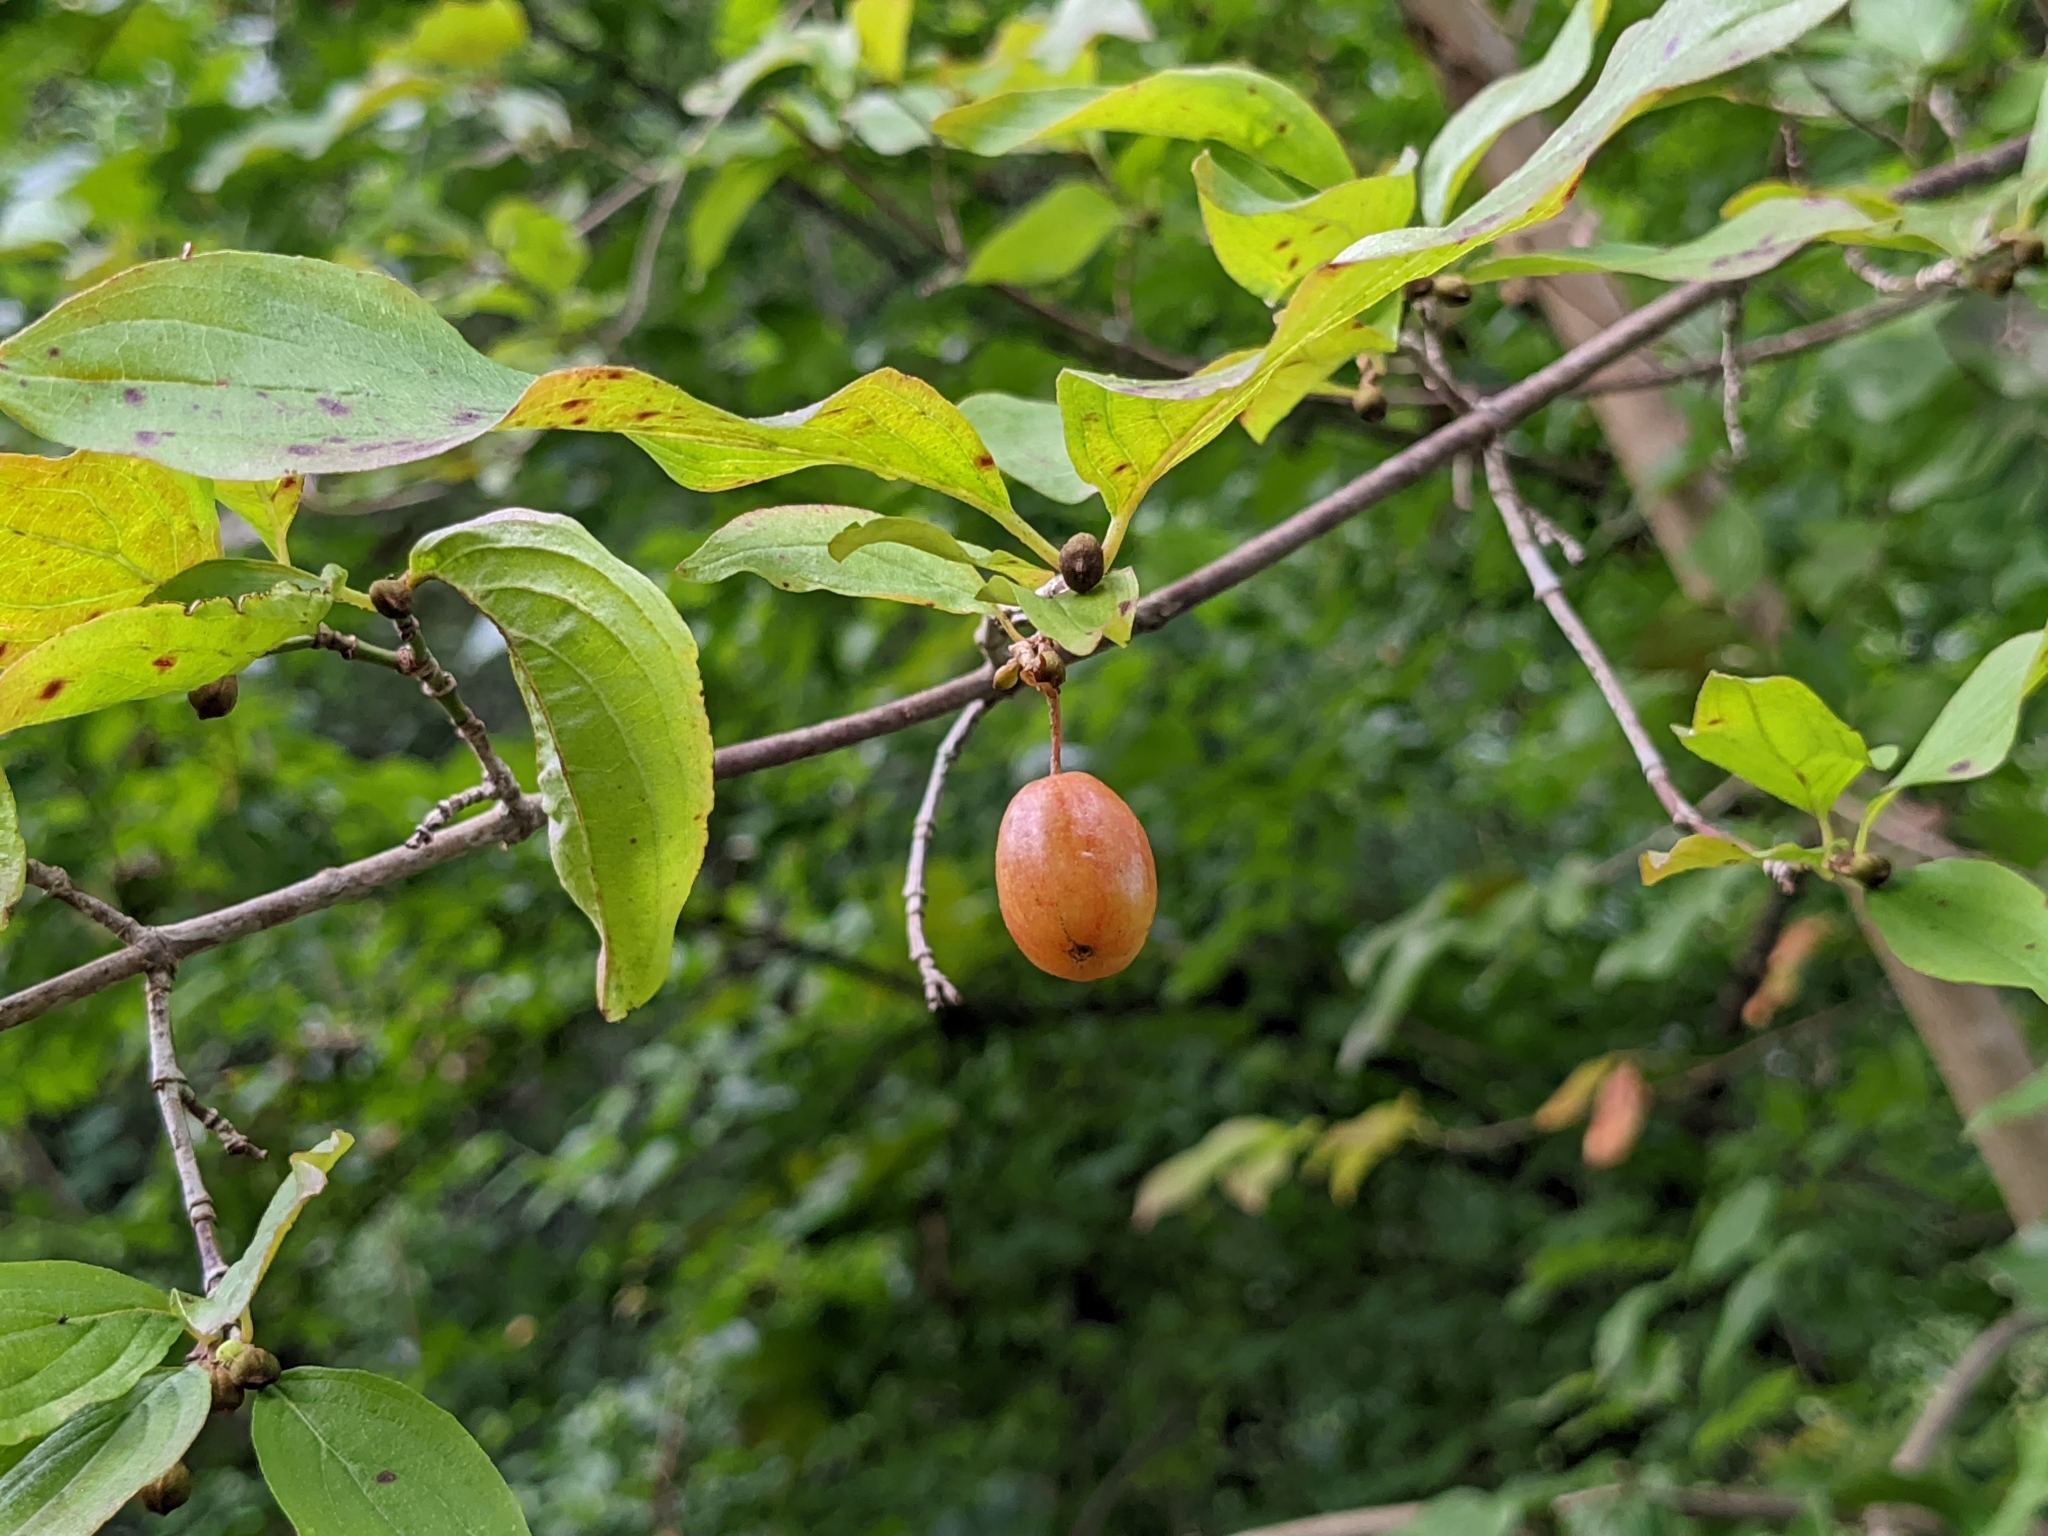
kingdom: Plantae
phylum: Tracheophyta
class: Magnoliopsida
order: Cornales
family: Cornaceae
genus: Cornus
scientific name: Cornus mas
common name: Cornelian-cherry
